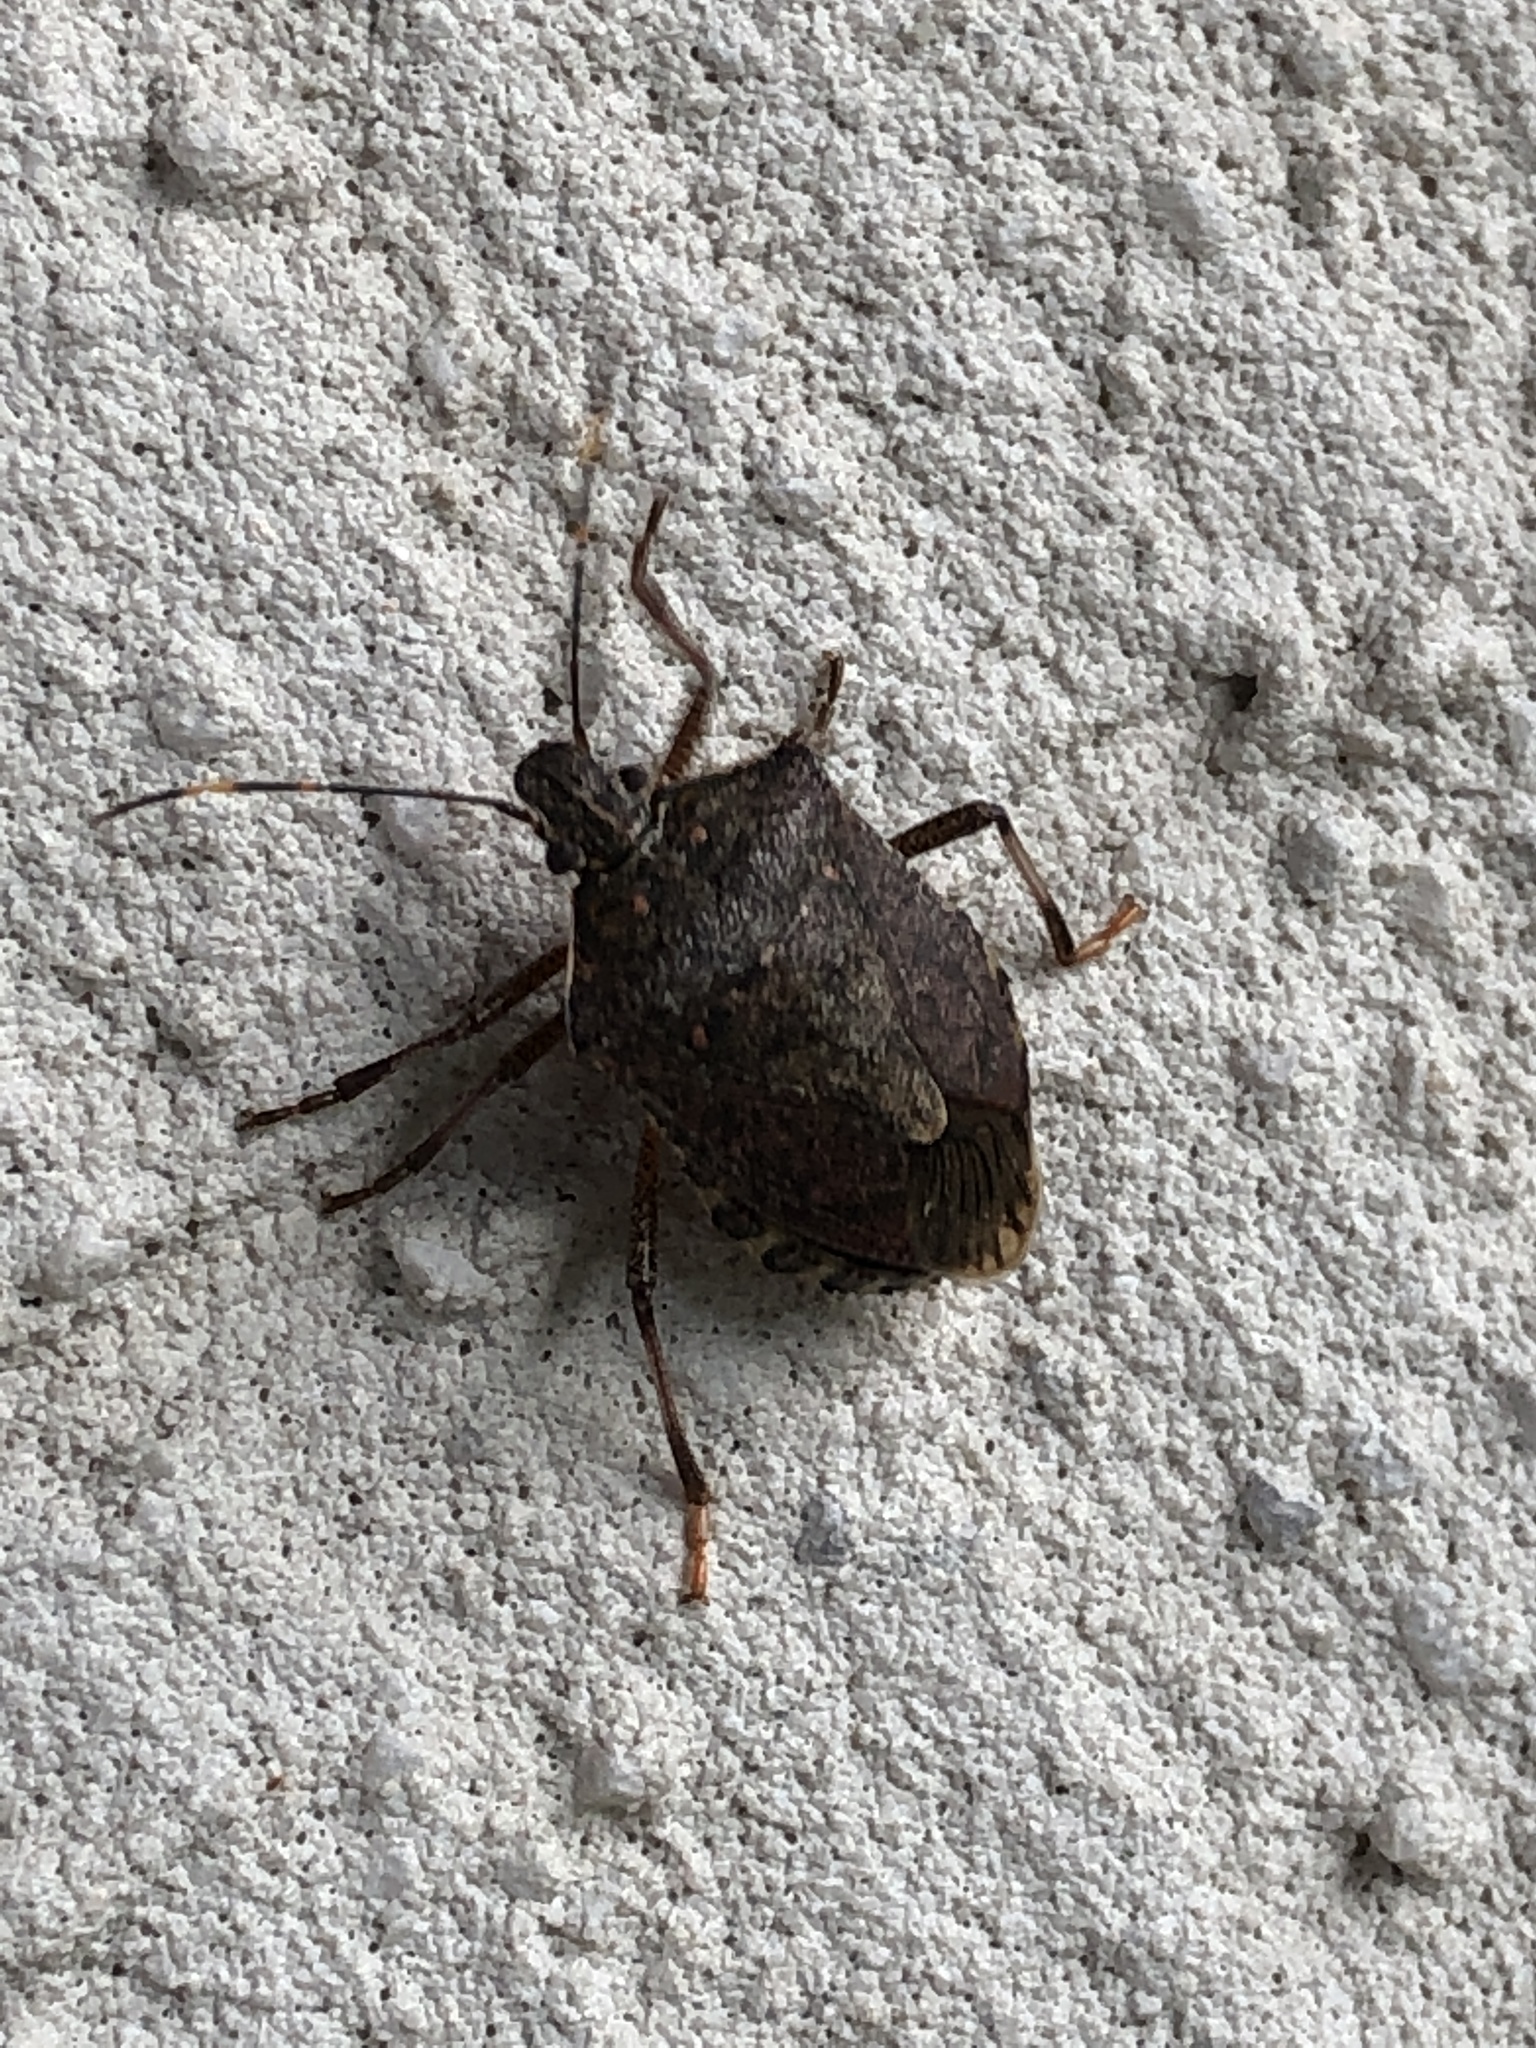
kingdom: Animalia
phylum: Arthropoda
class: Insecta
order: Hemiptera
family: Pentatomidae
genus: Halyomorpha
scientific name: Halyomorpha halys
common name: Brown marmorated stink bug
